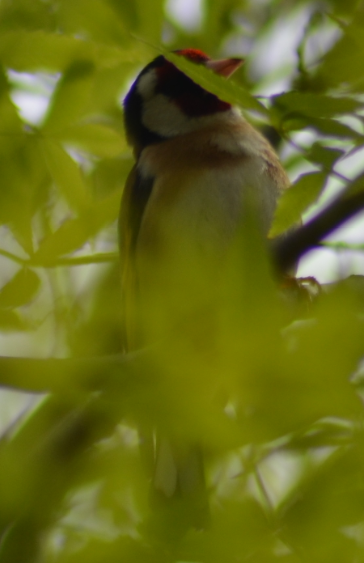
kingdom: Animalia
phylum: Chordata
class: Aves
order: Passeriformes
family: Fringillidae
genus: Carduelis
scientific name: Carduelis carduelis
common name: European goldfinch
